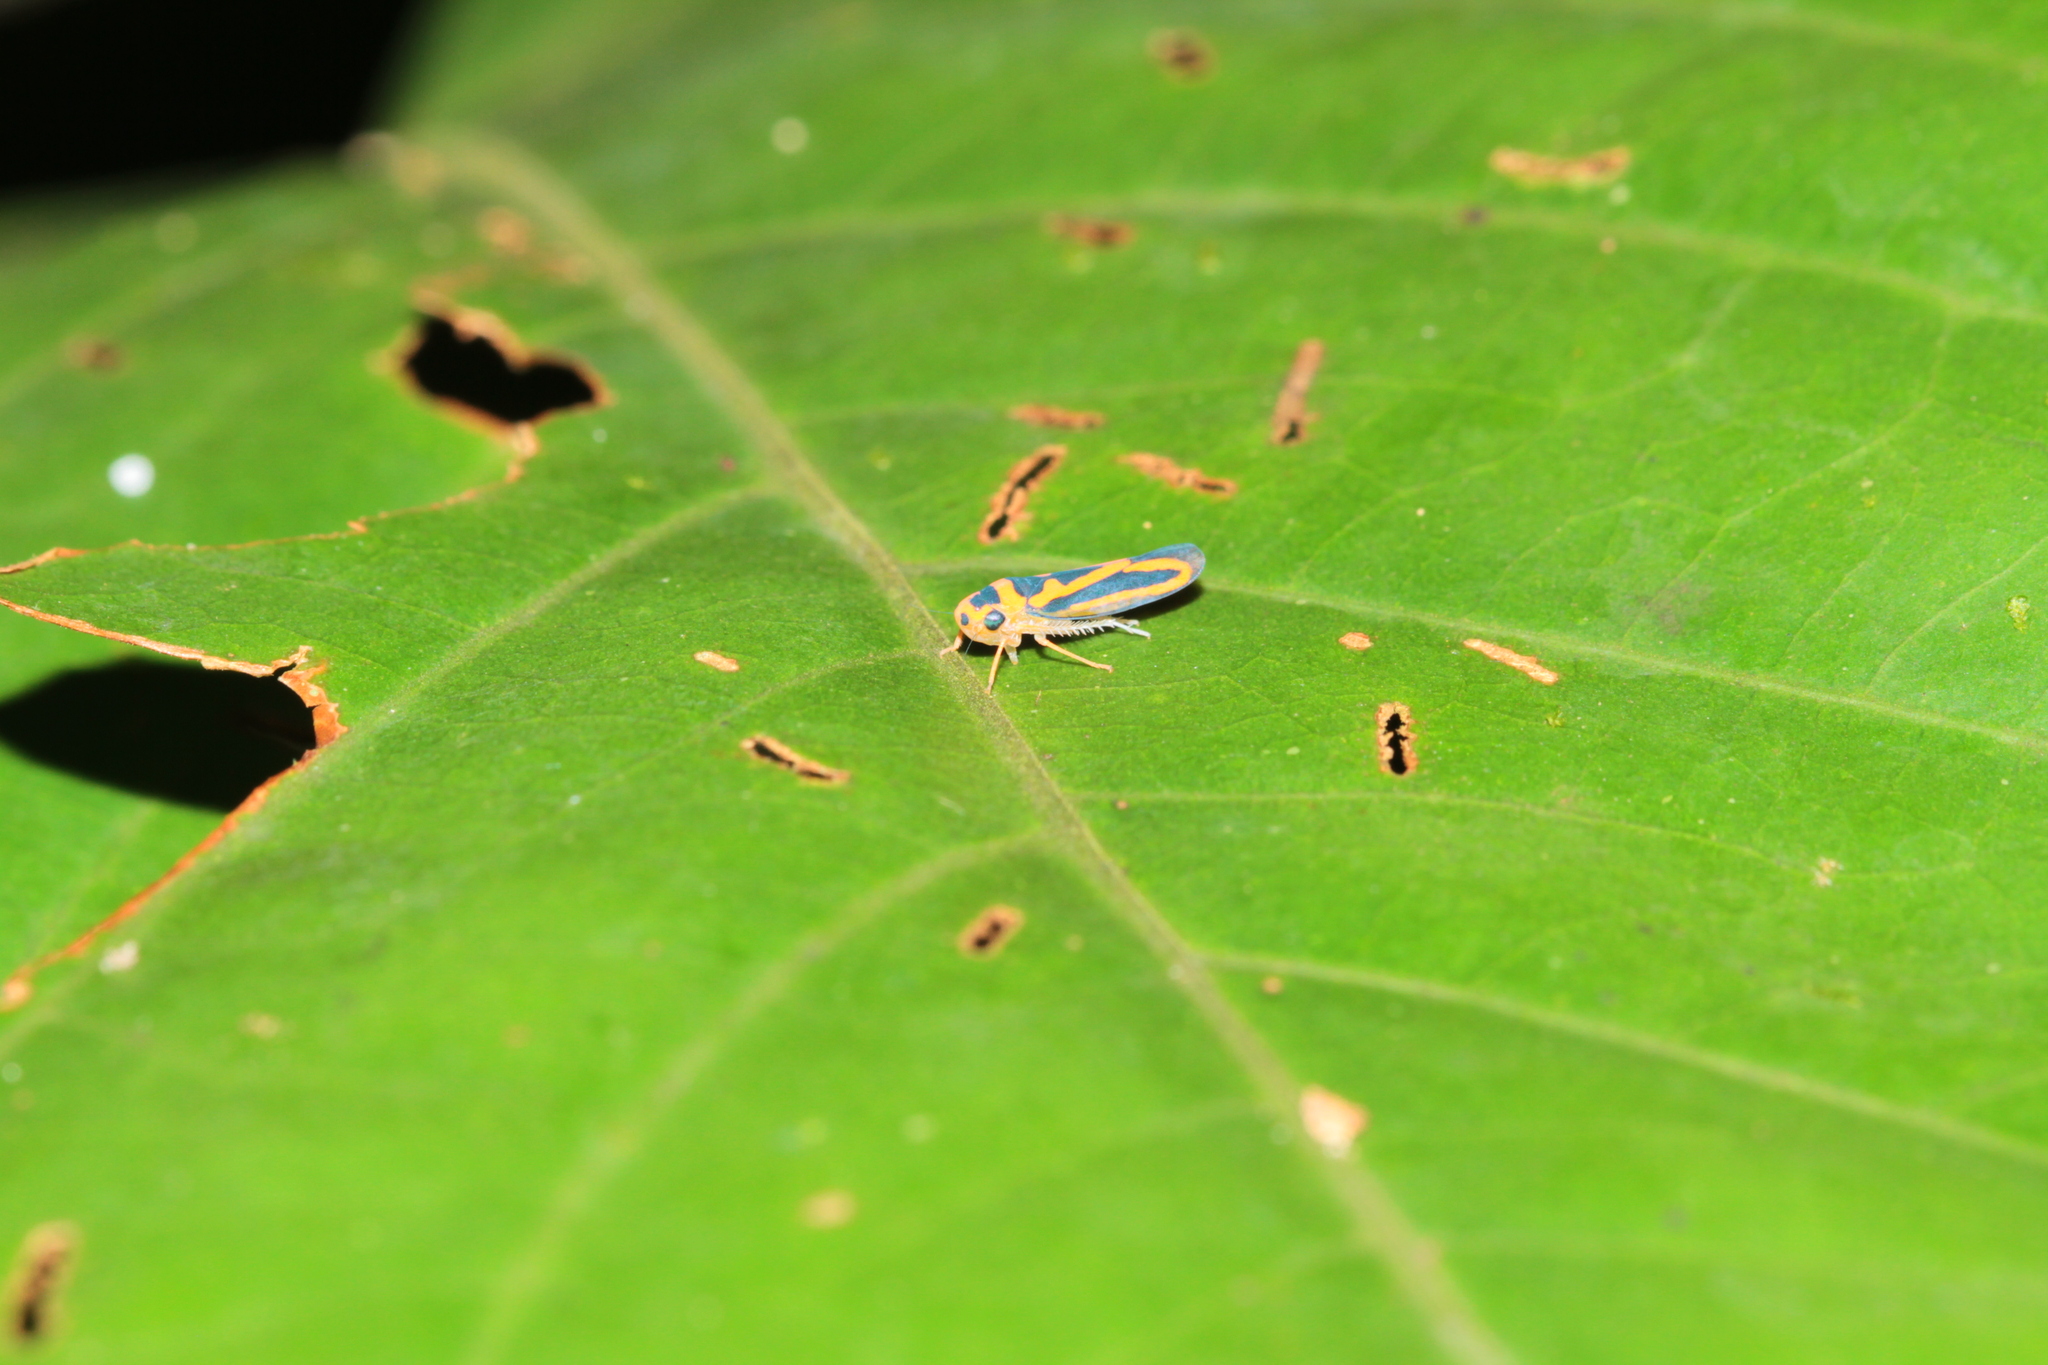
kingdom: Animalia
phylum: Arthropoda
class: Insecta
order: Hemiptera
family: Cicadellidae
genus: Palingonalia
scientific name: Palingonalia bigutta
